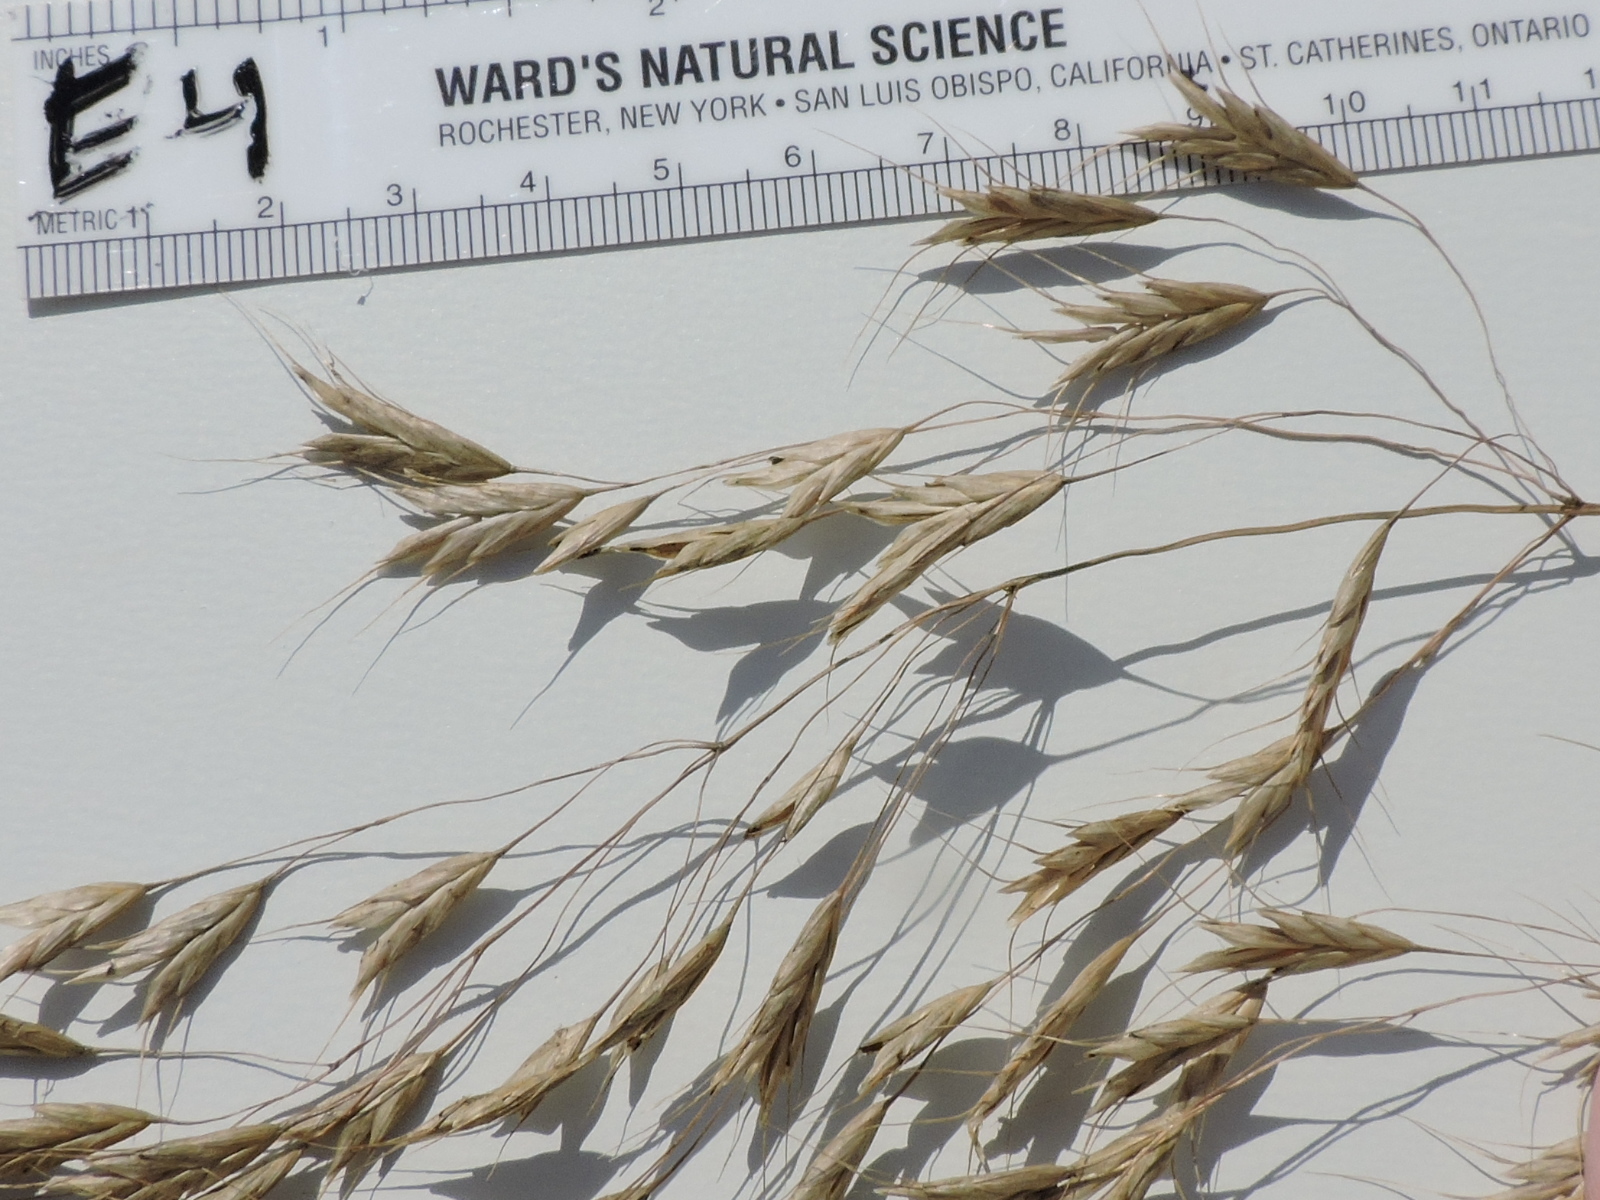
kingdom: Plantae
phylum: Tracheophyta
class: Liliopsida
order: Poales
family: Poaceae
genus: Bromus
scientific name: Bromus japonicus
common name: Japanese brome
